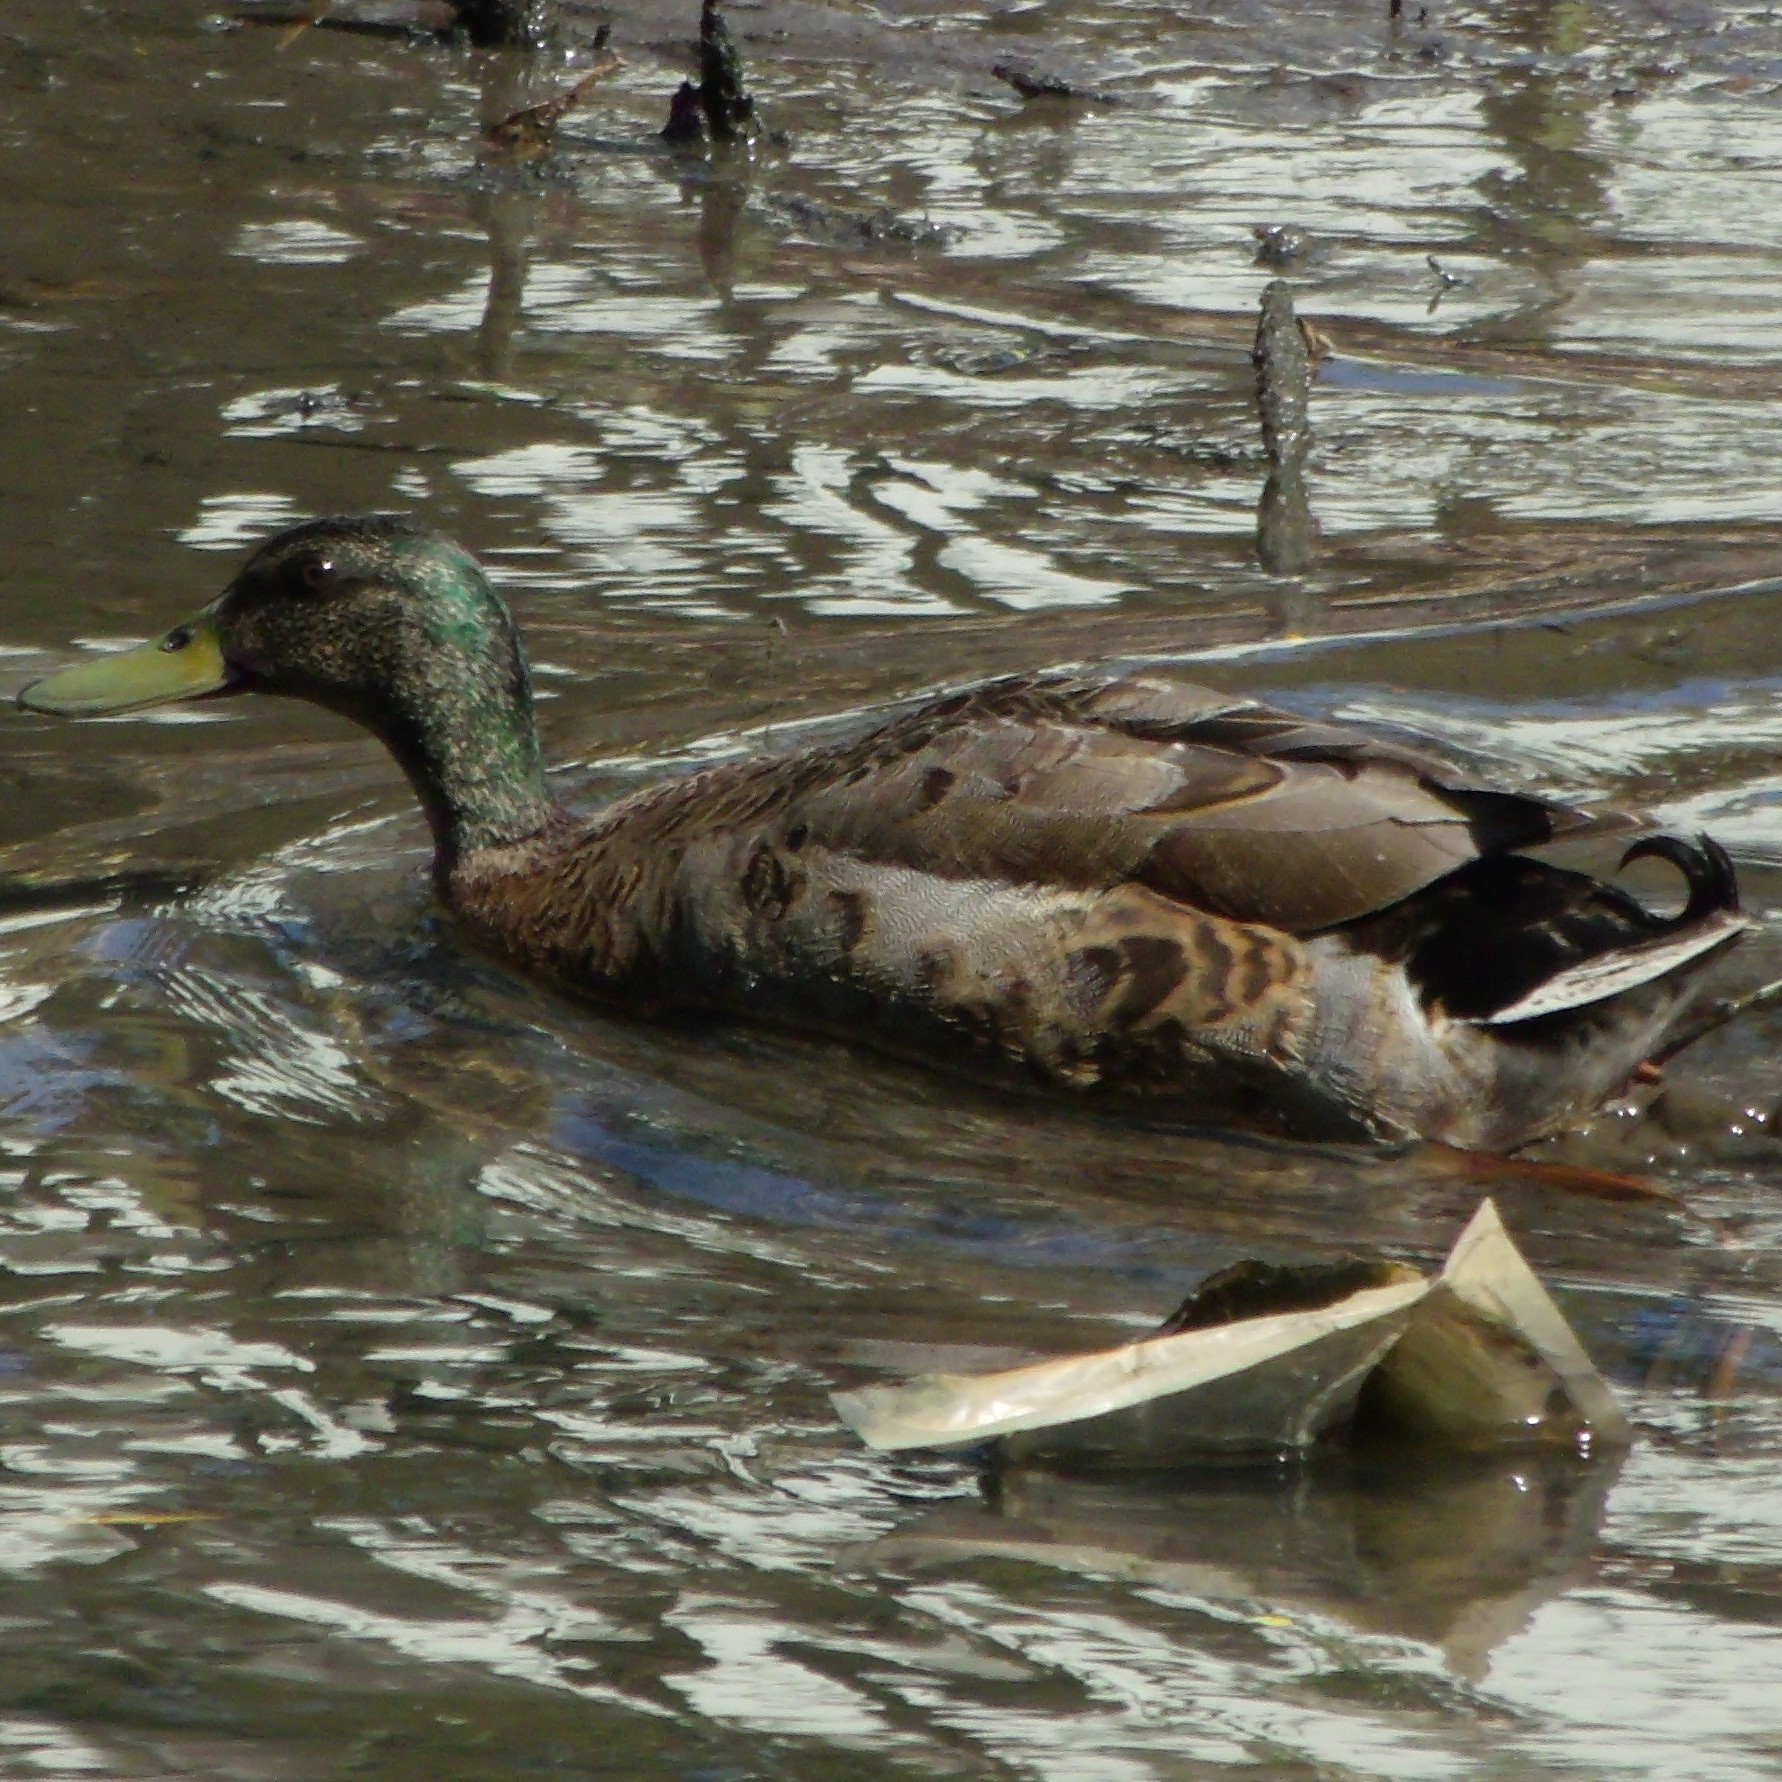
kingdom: Animalia
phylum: Chordata
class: Aves
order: Anseriformes
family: Anatidae
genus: Anas
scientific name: Anas platyrhynchos
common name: Mallard
